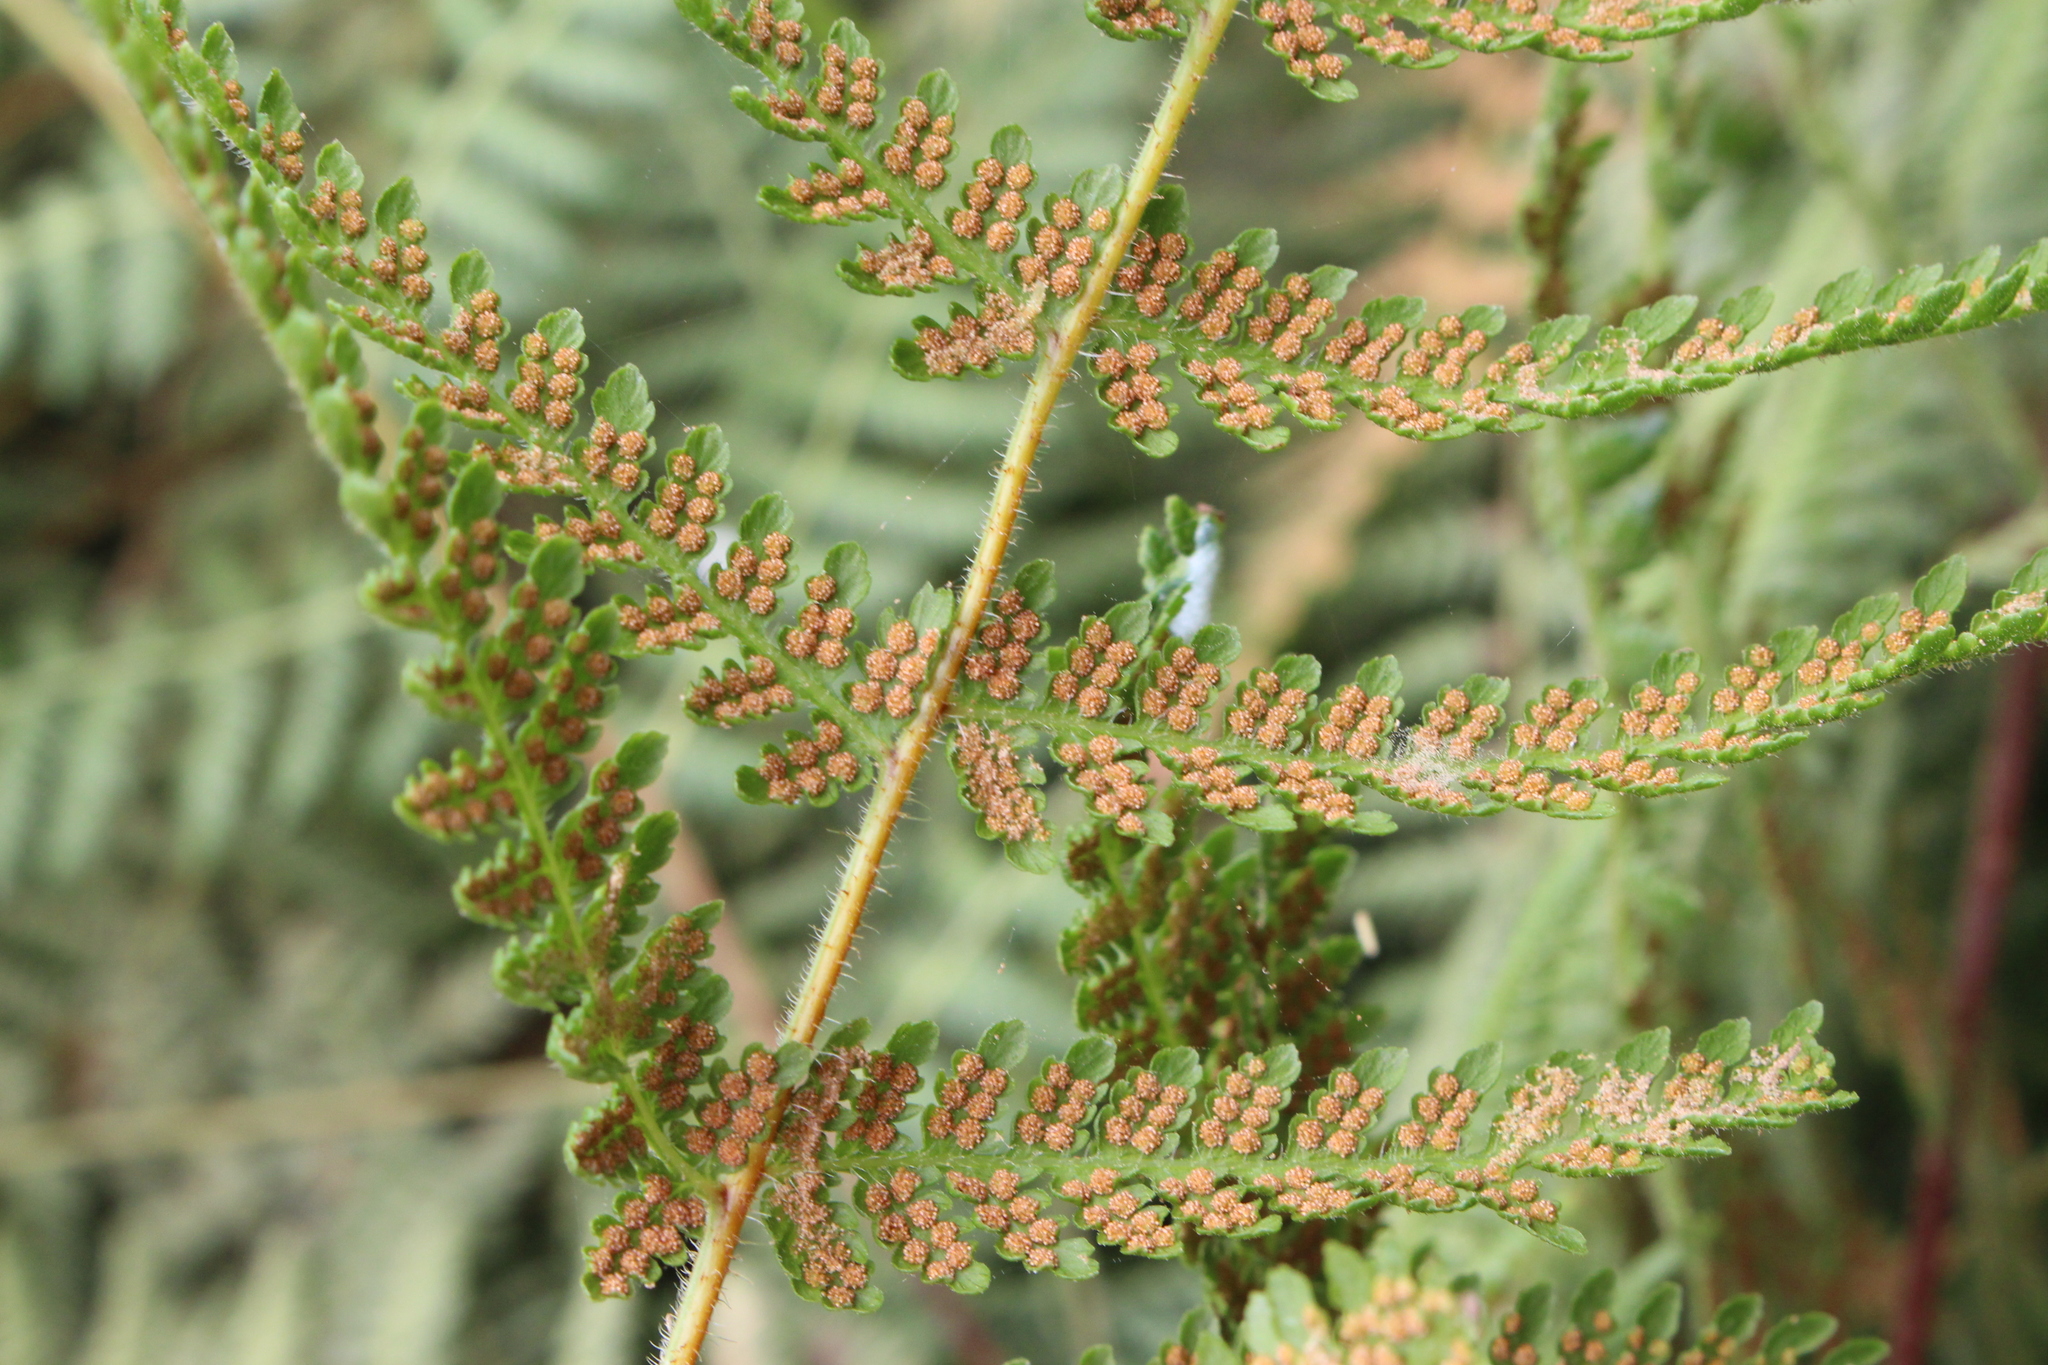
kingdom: Plantae
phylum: Tracheophyta
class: Polypodiopsida
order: Polypodiales
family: Dennstaedtiaceae
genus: Hypolepis
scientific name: Hypolepis ambigua
